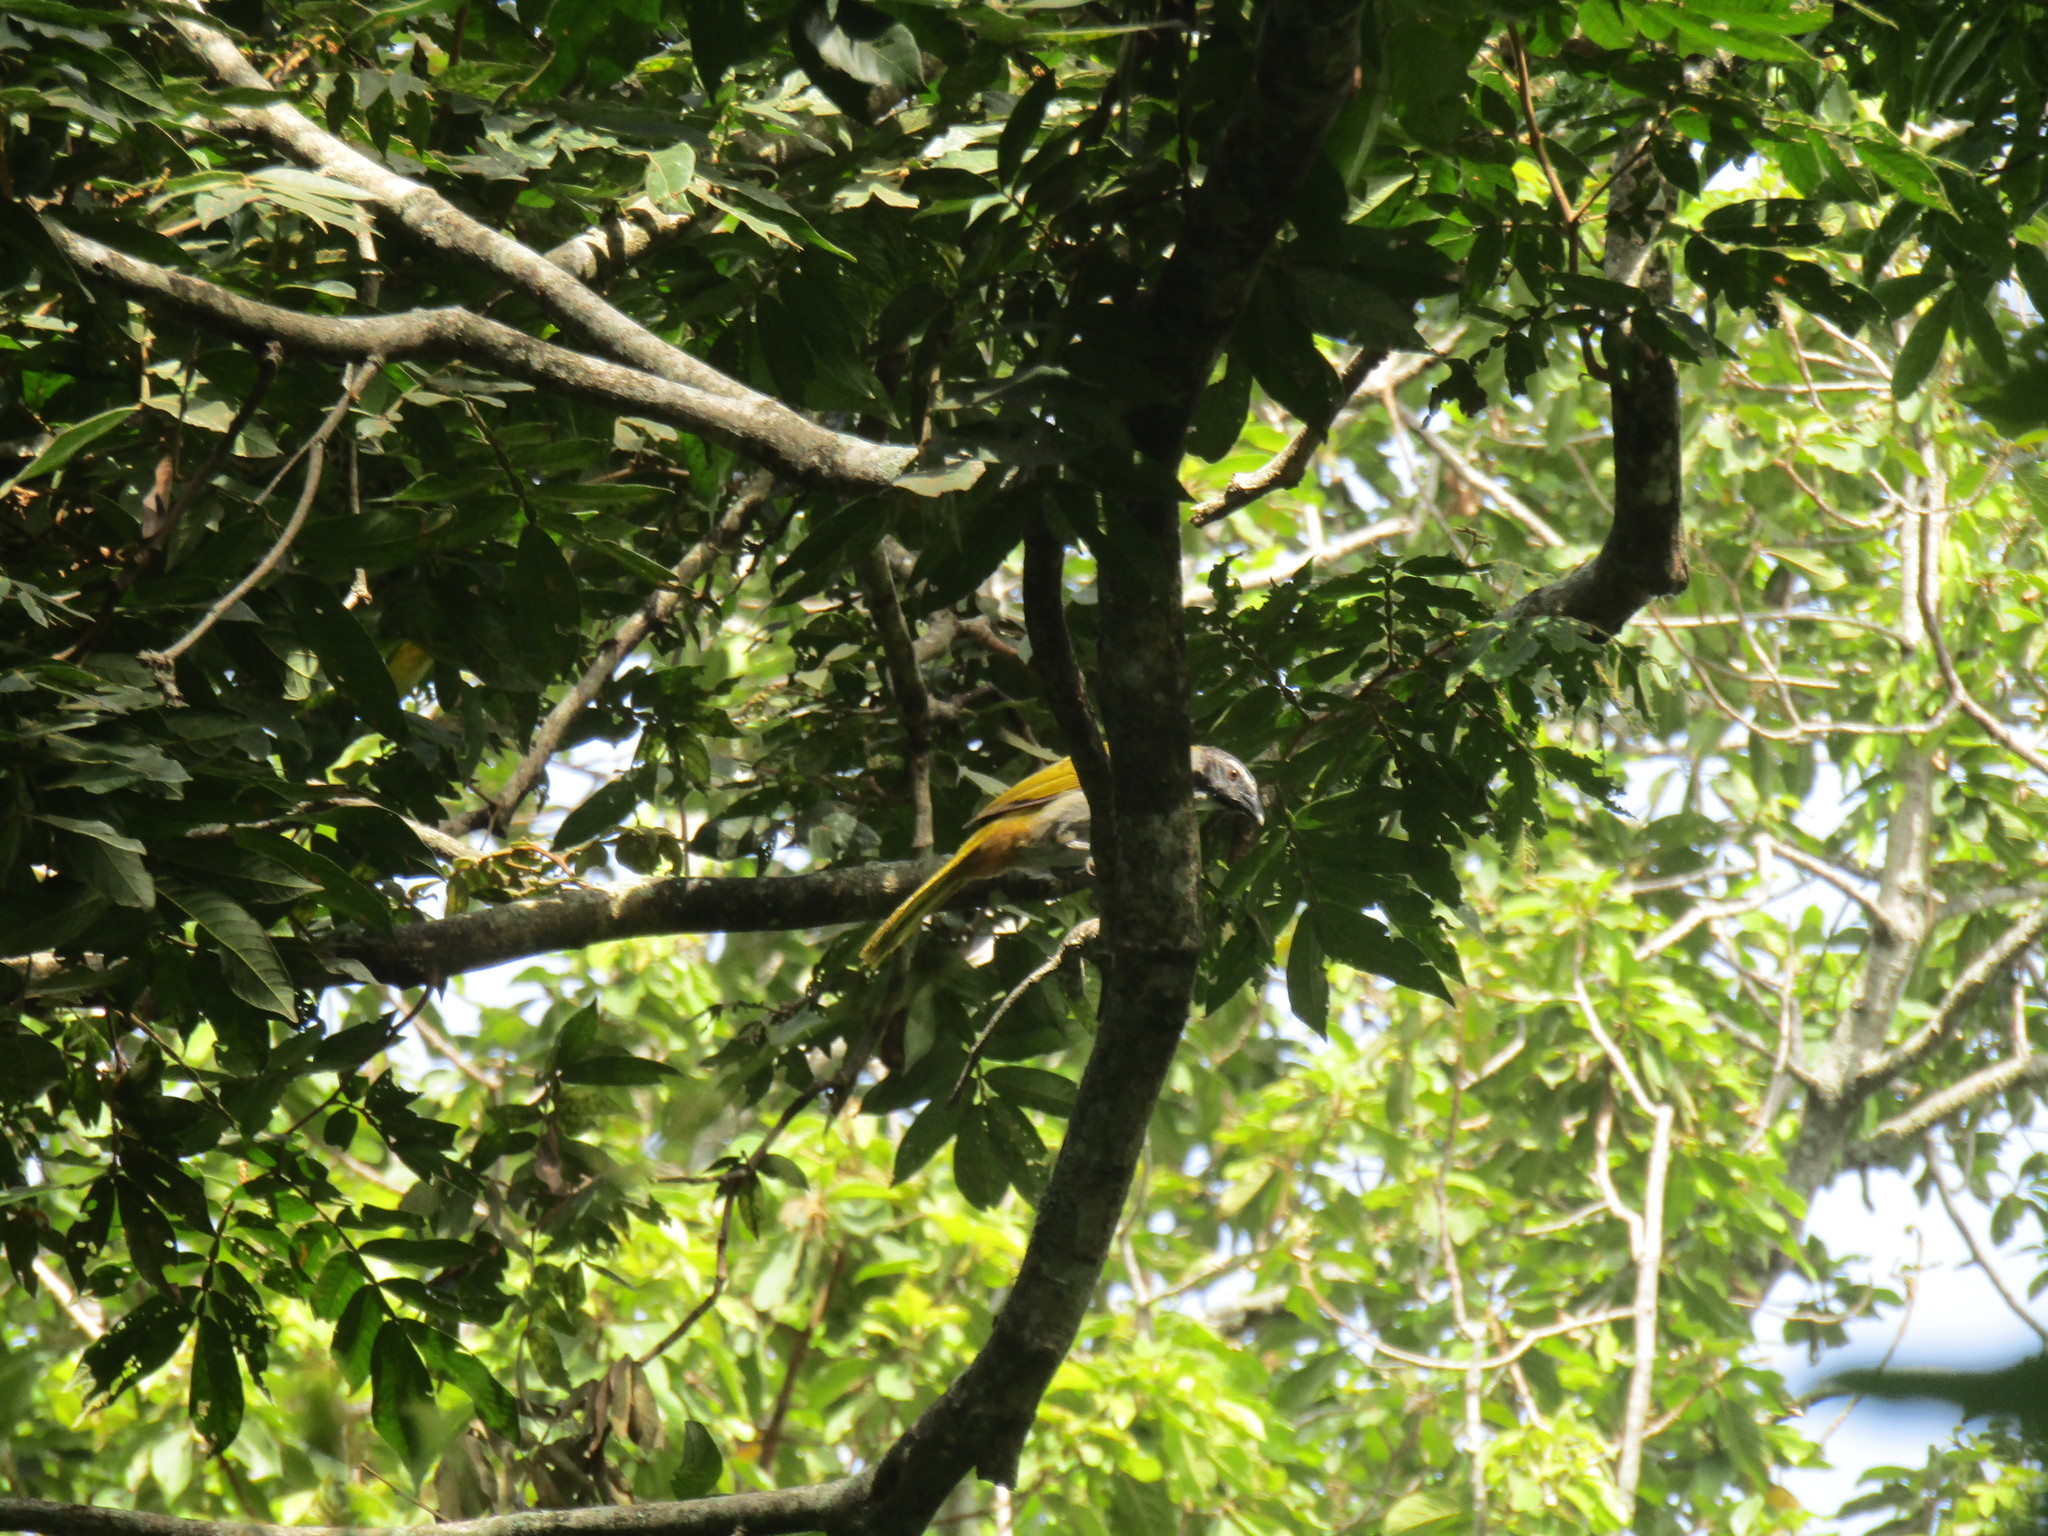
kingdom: Animalia
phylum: Chordata
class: Aves
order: Passeriformes
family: Thraupidae
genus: Saltator
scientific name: Saltator atriceps
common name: Black-headed saltator
